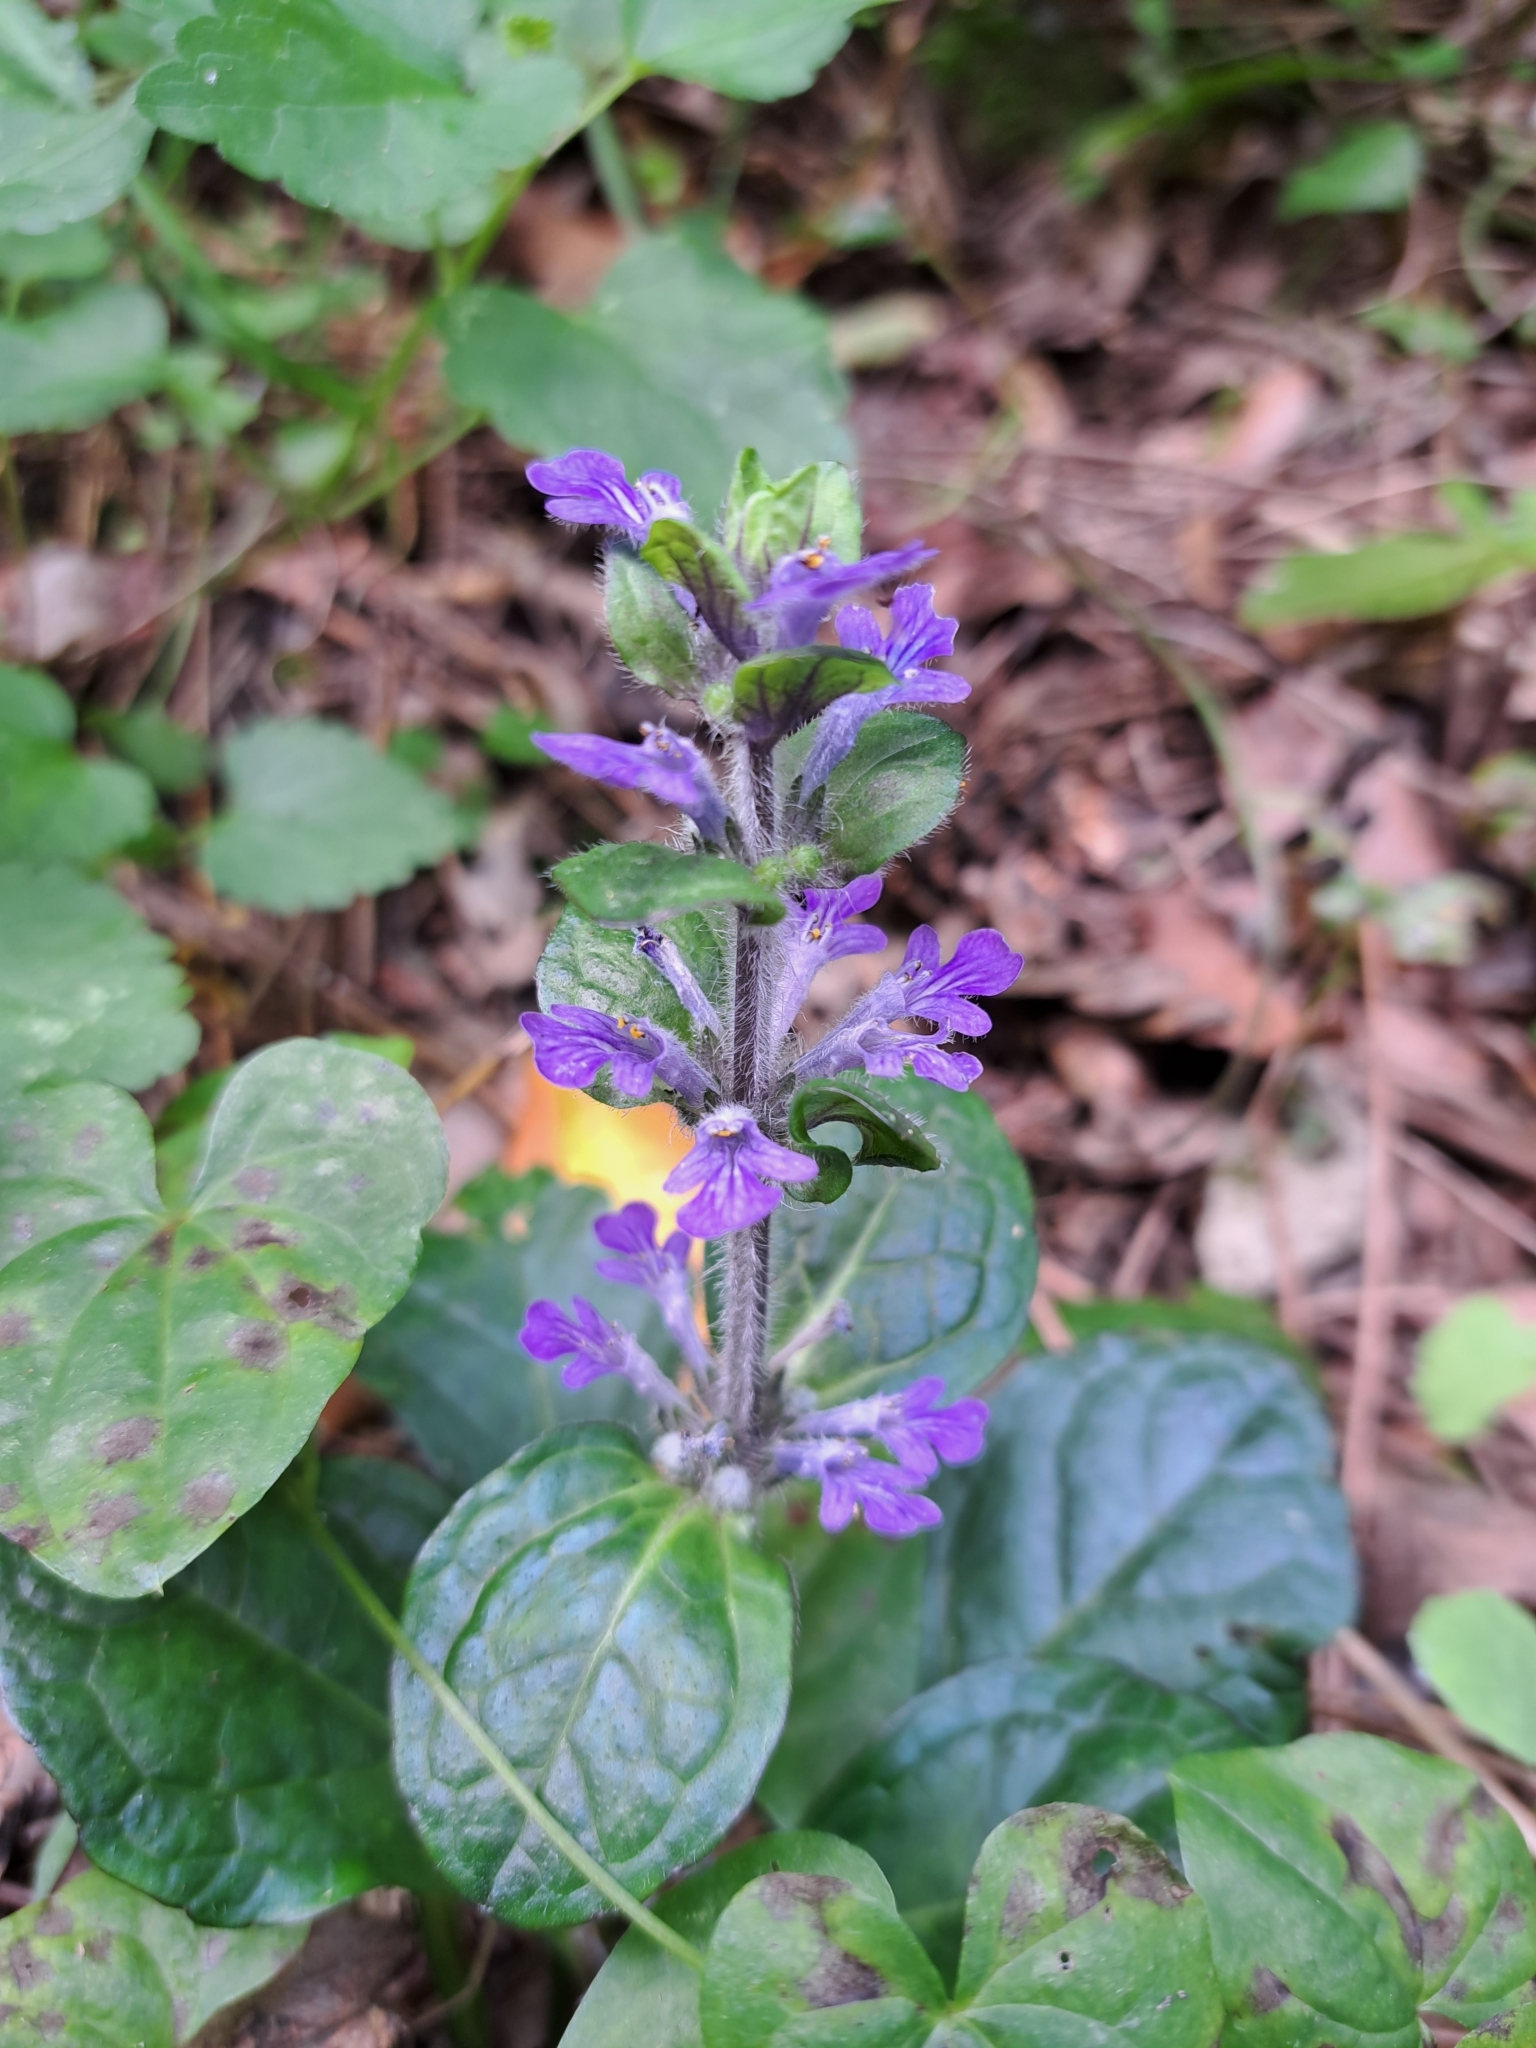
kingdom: Plantae
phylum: Tracheophyta
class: Magnoliopsida
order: Lamiales
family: Lamiaceae
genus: Ajuga
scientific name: Ajuga reptans
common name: Bugle
